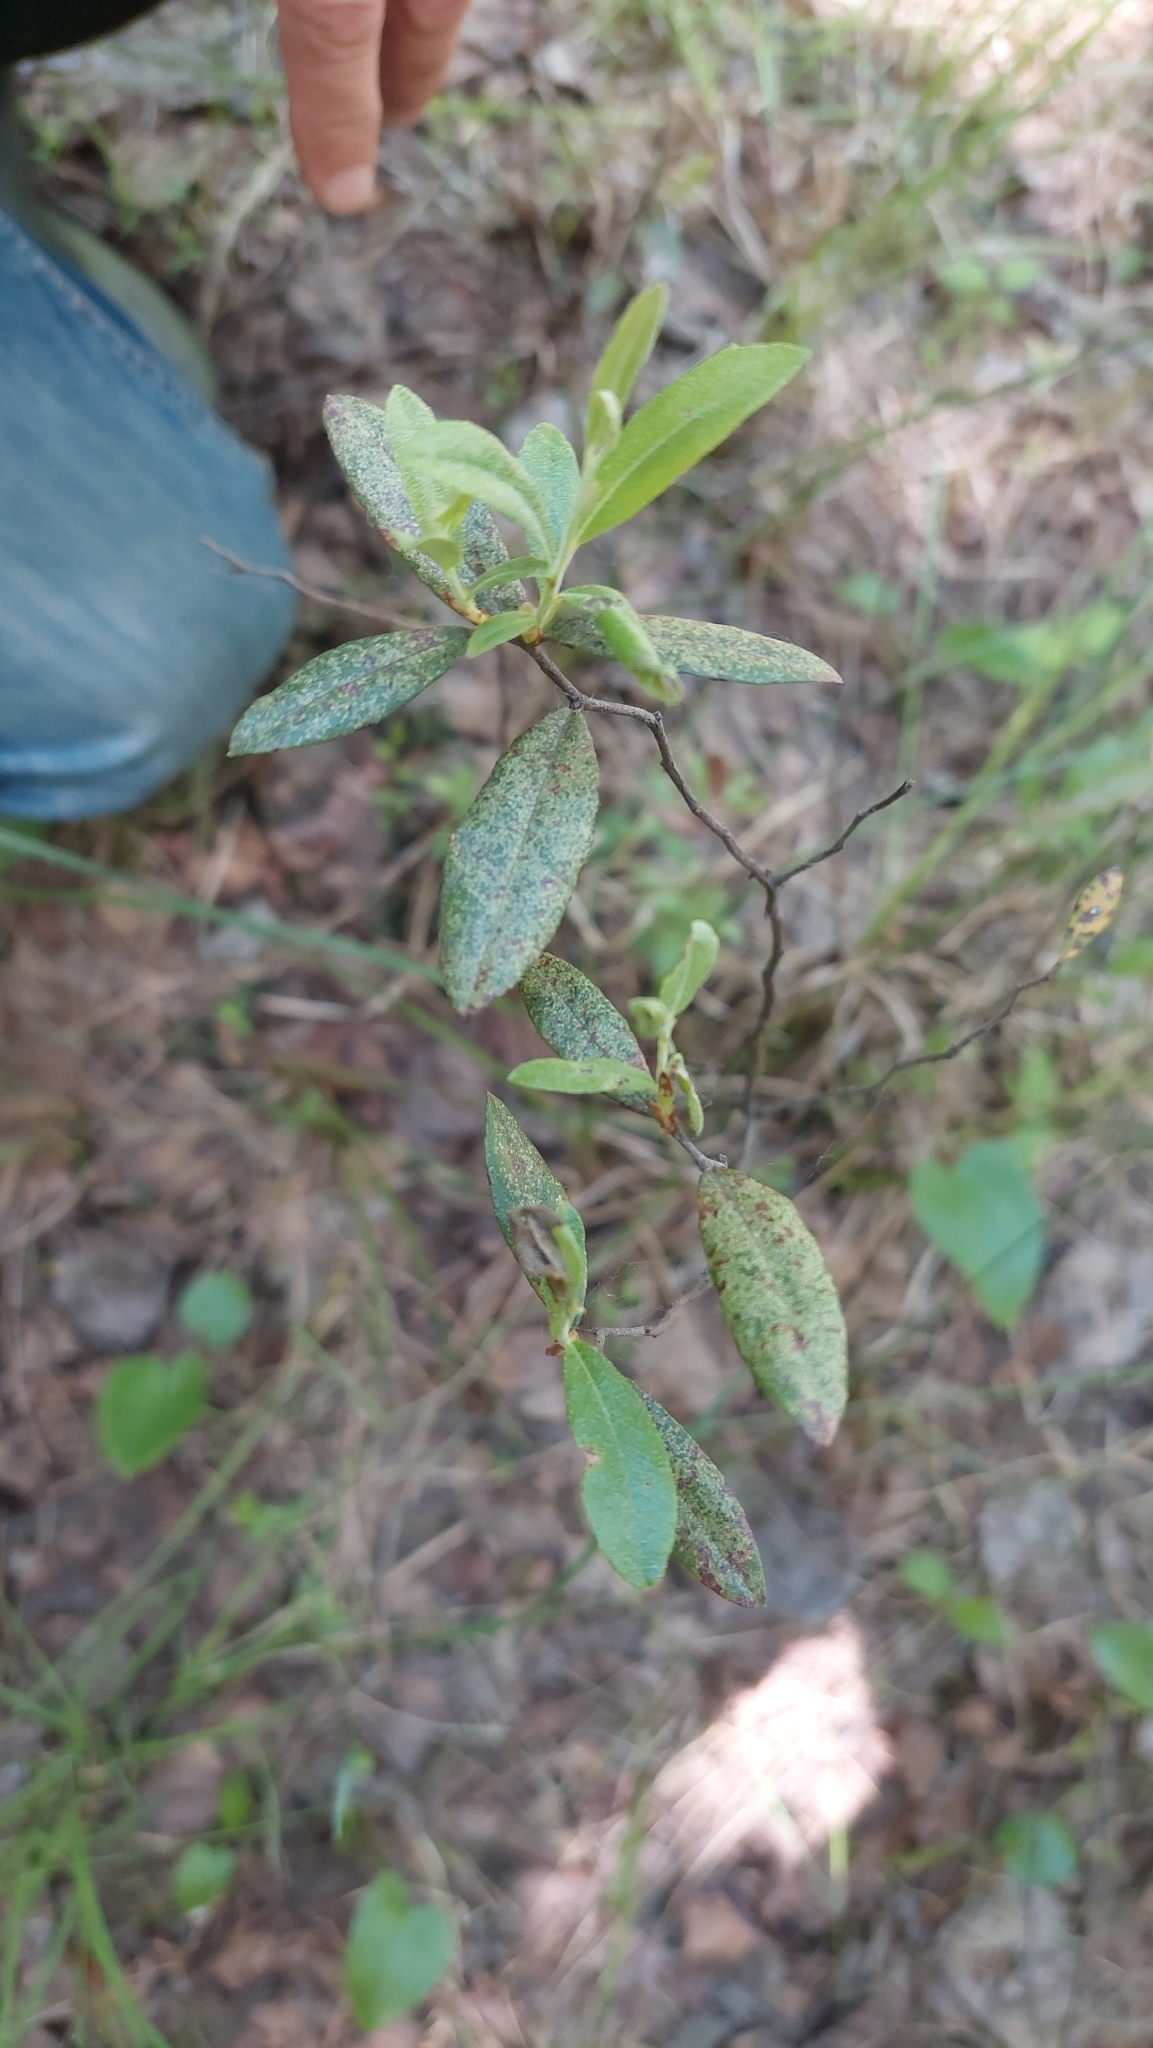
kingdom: Plantae
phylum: Tracheophyta
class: Magnoliopsida
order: Ericales
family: Ericaceae
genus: Chamaedaphne
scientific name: Chamaedaphne calyculata
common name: Leatherleaf
